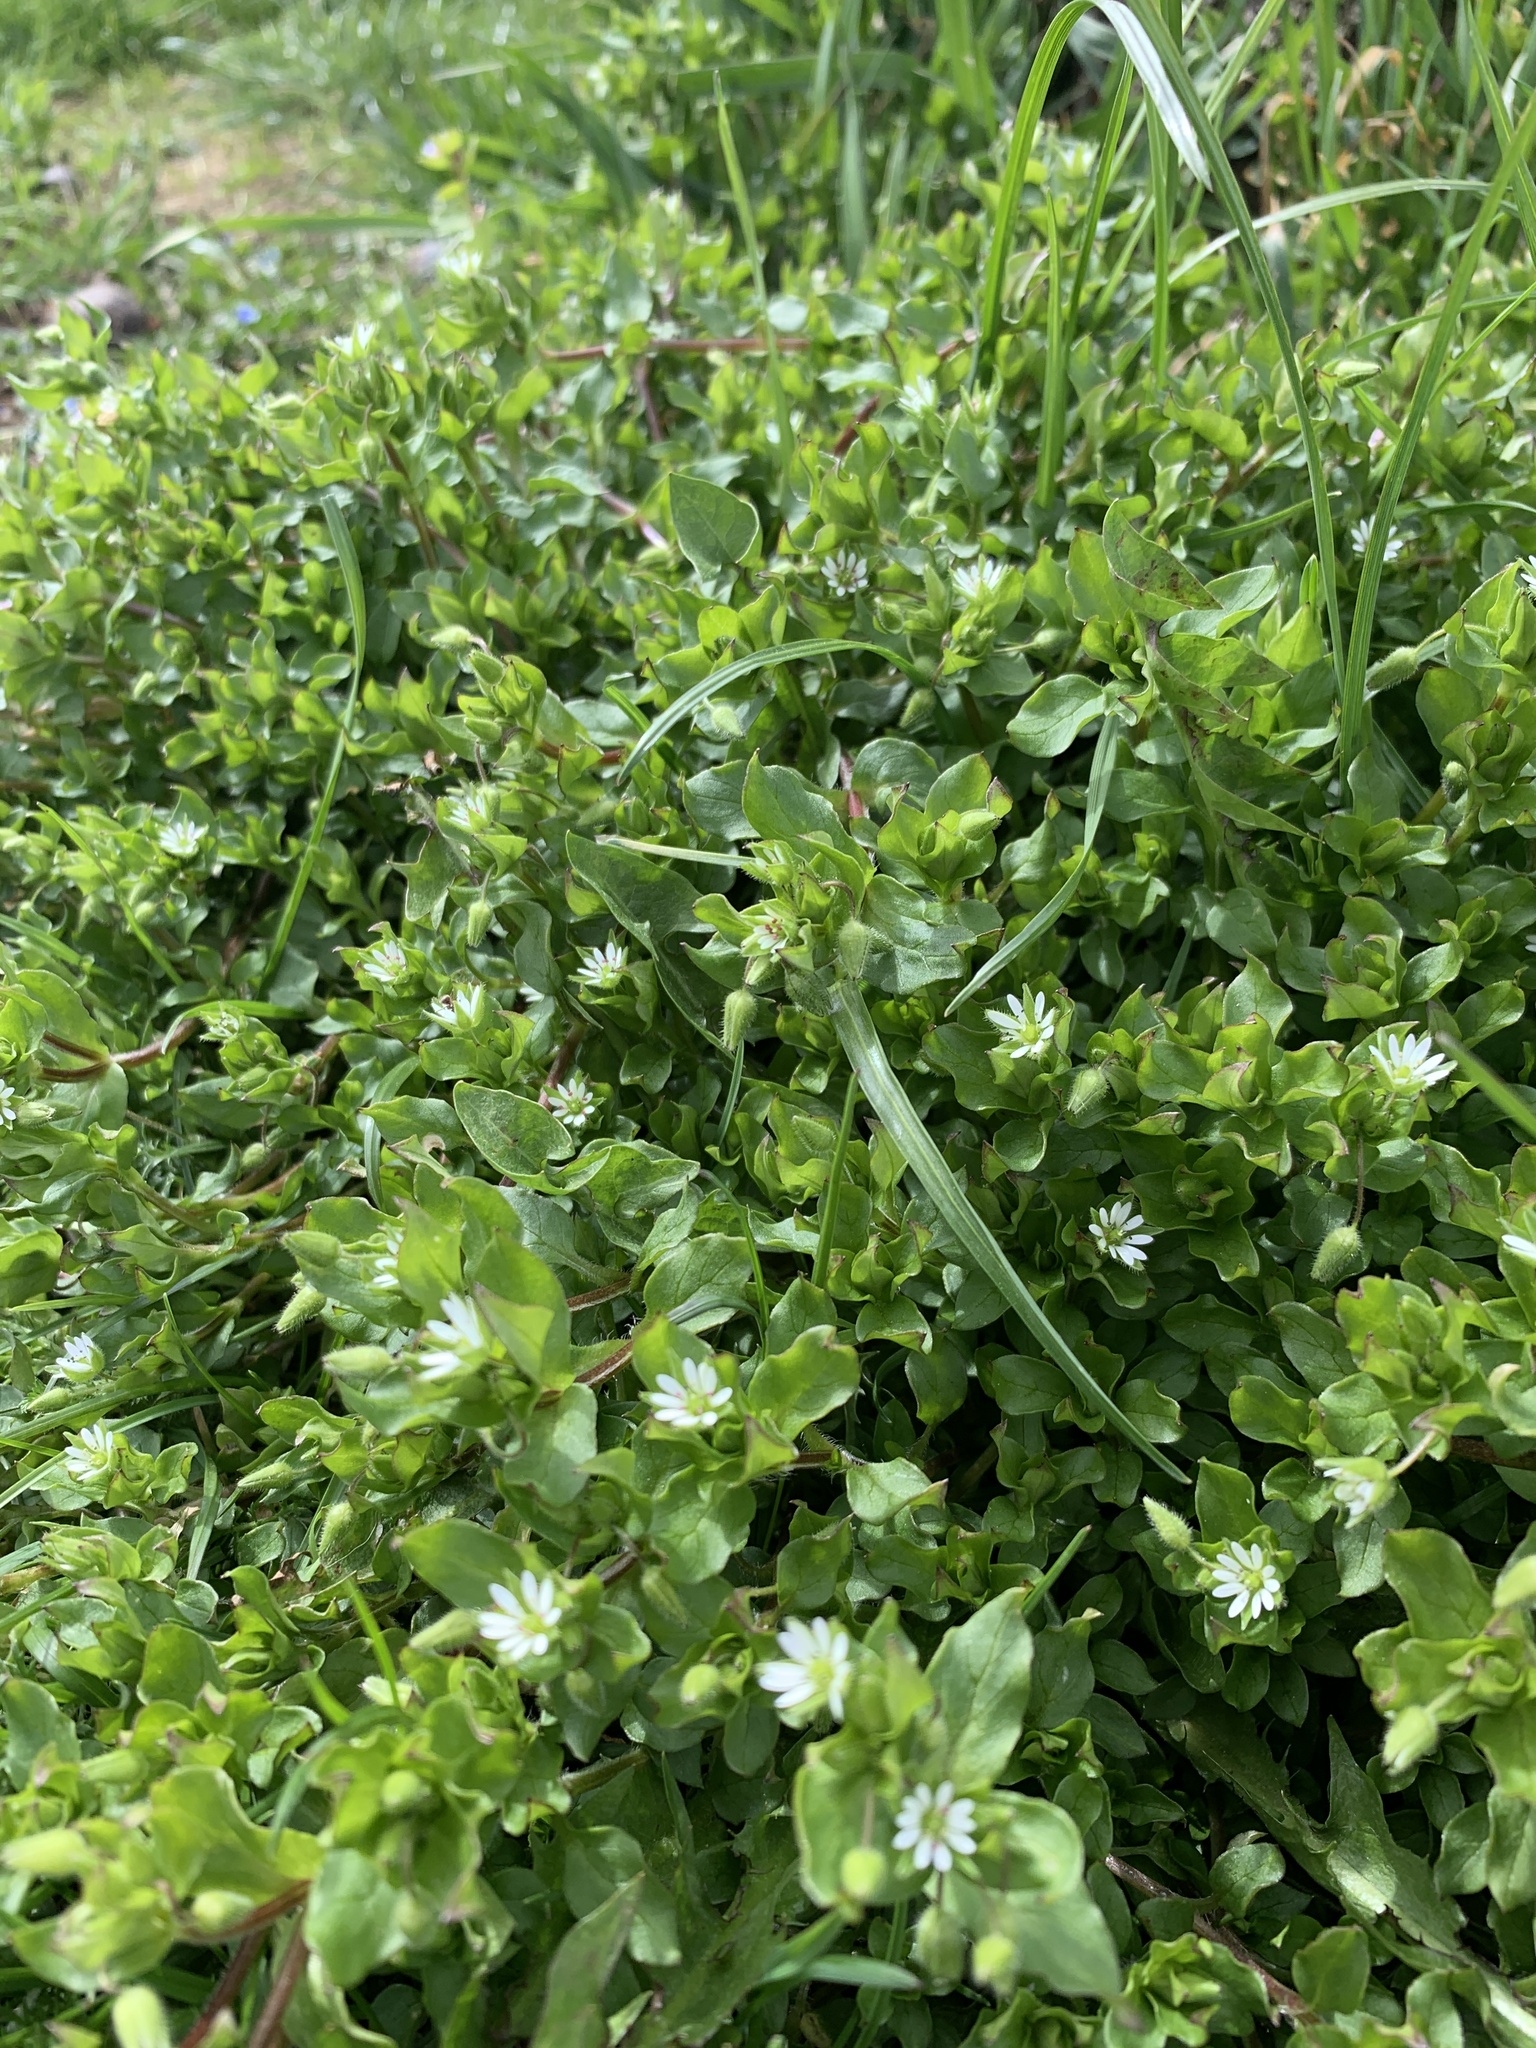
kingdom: Plantae
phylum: Tracheophyta
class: Magnoliopsida
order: Caryophyllales
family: Caryophyllaceae
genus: Stellaria
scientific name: Stellaria media
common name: Common chickweed
